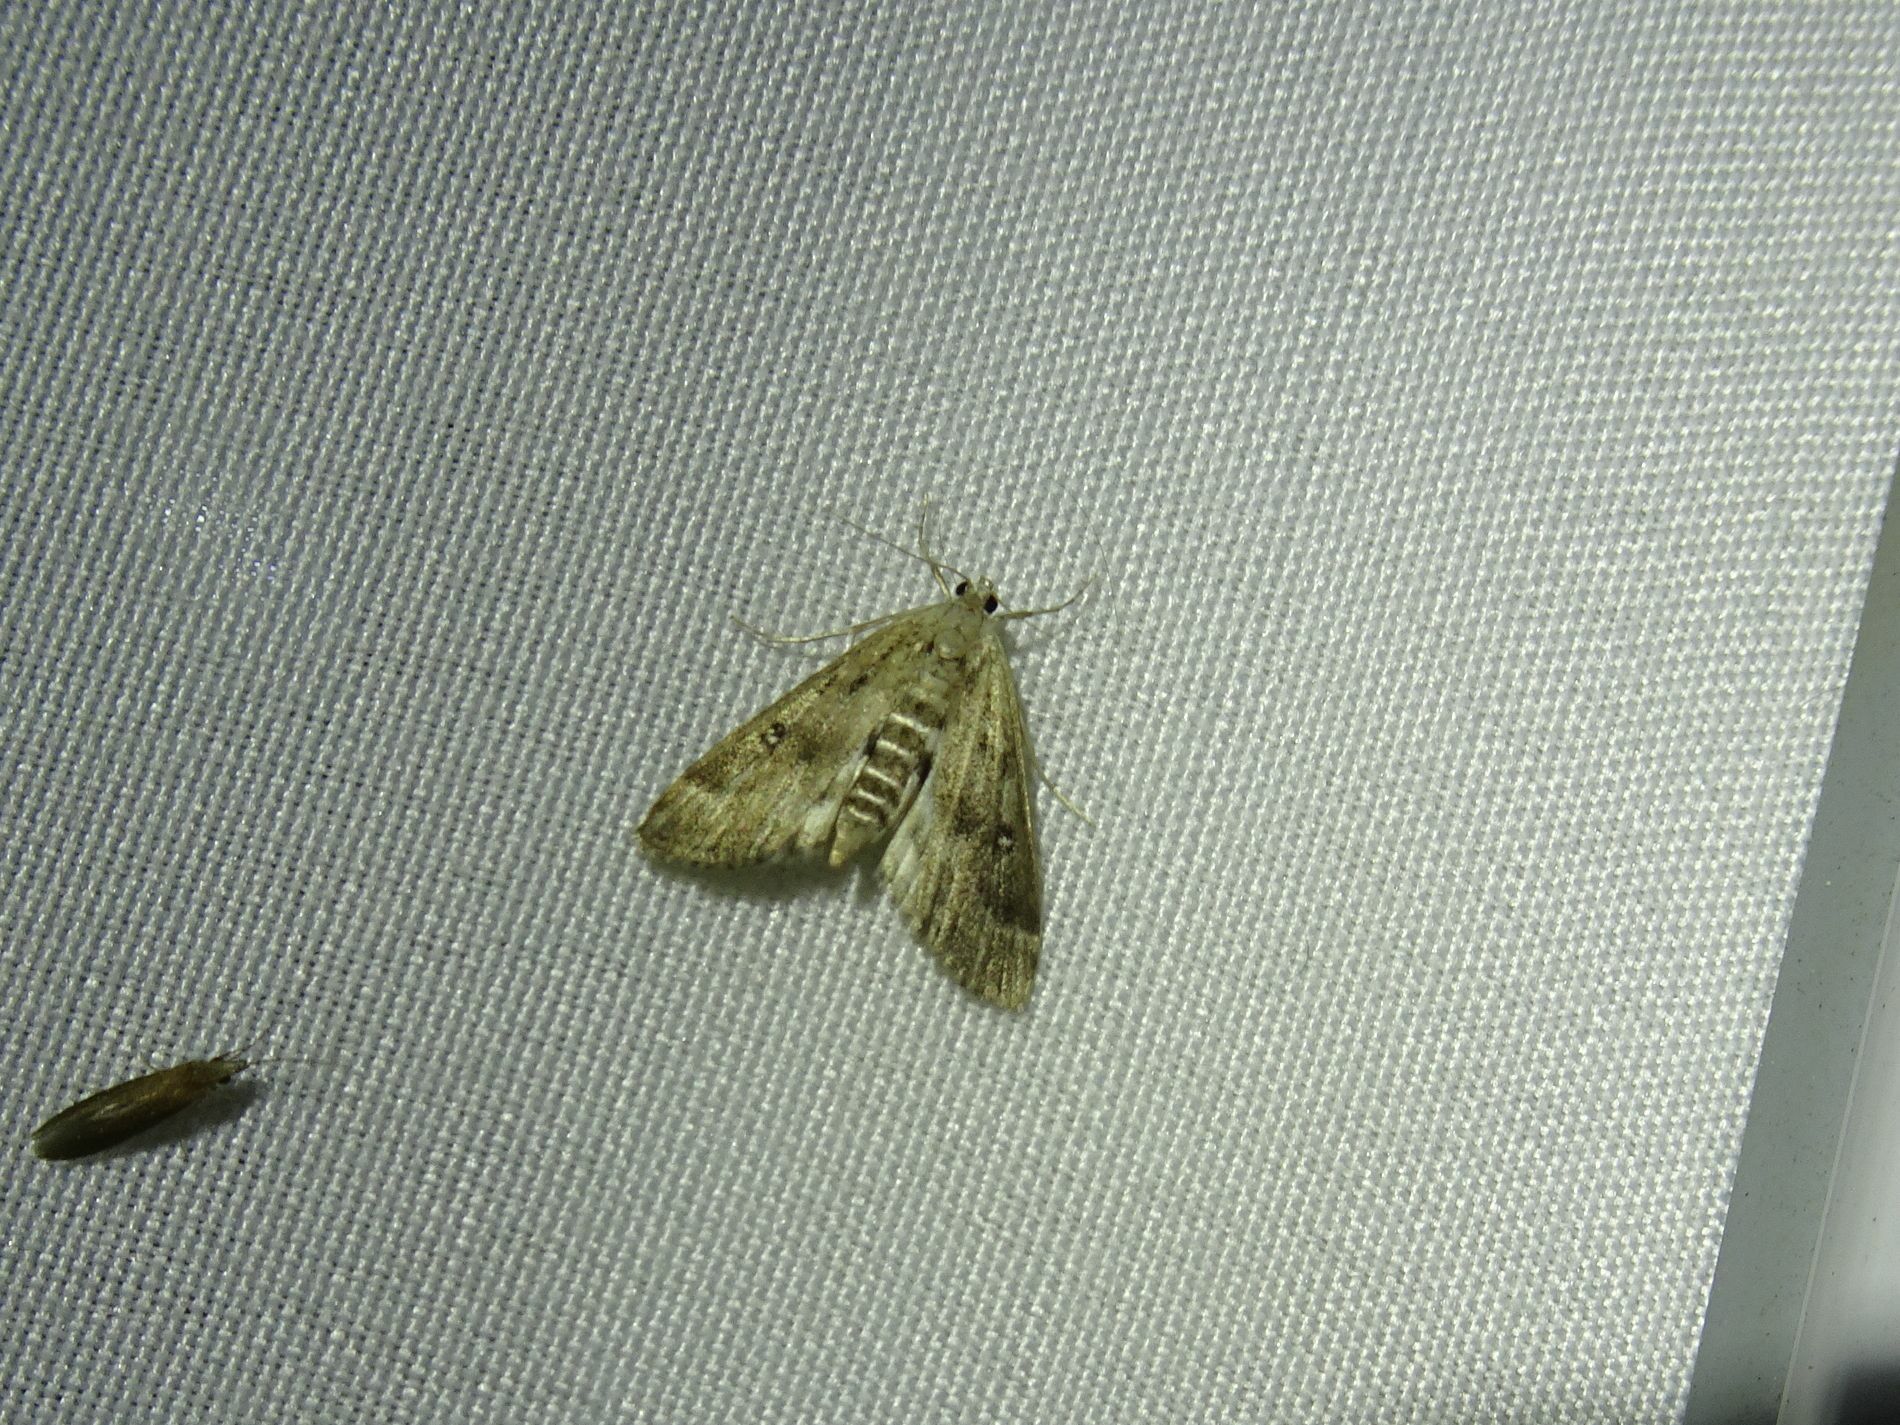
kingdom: Animalia
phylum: Arthropoda
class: Insecta
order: Lepidoptera
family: Crambidae
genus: Parapoynx
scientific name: Parapoynx stratiotata
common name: Ringed china-mark
